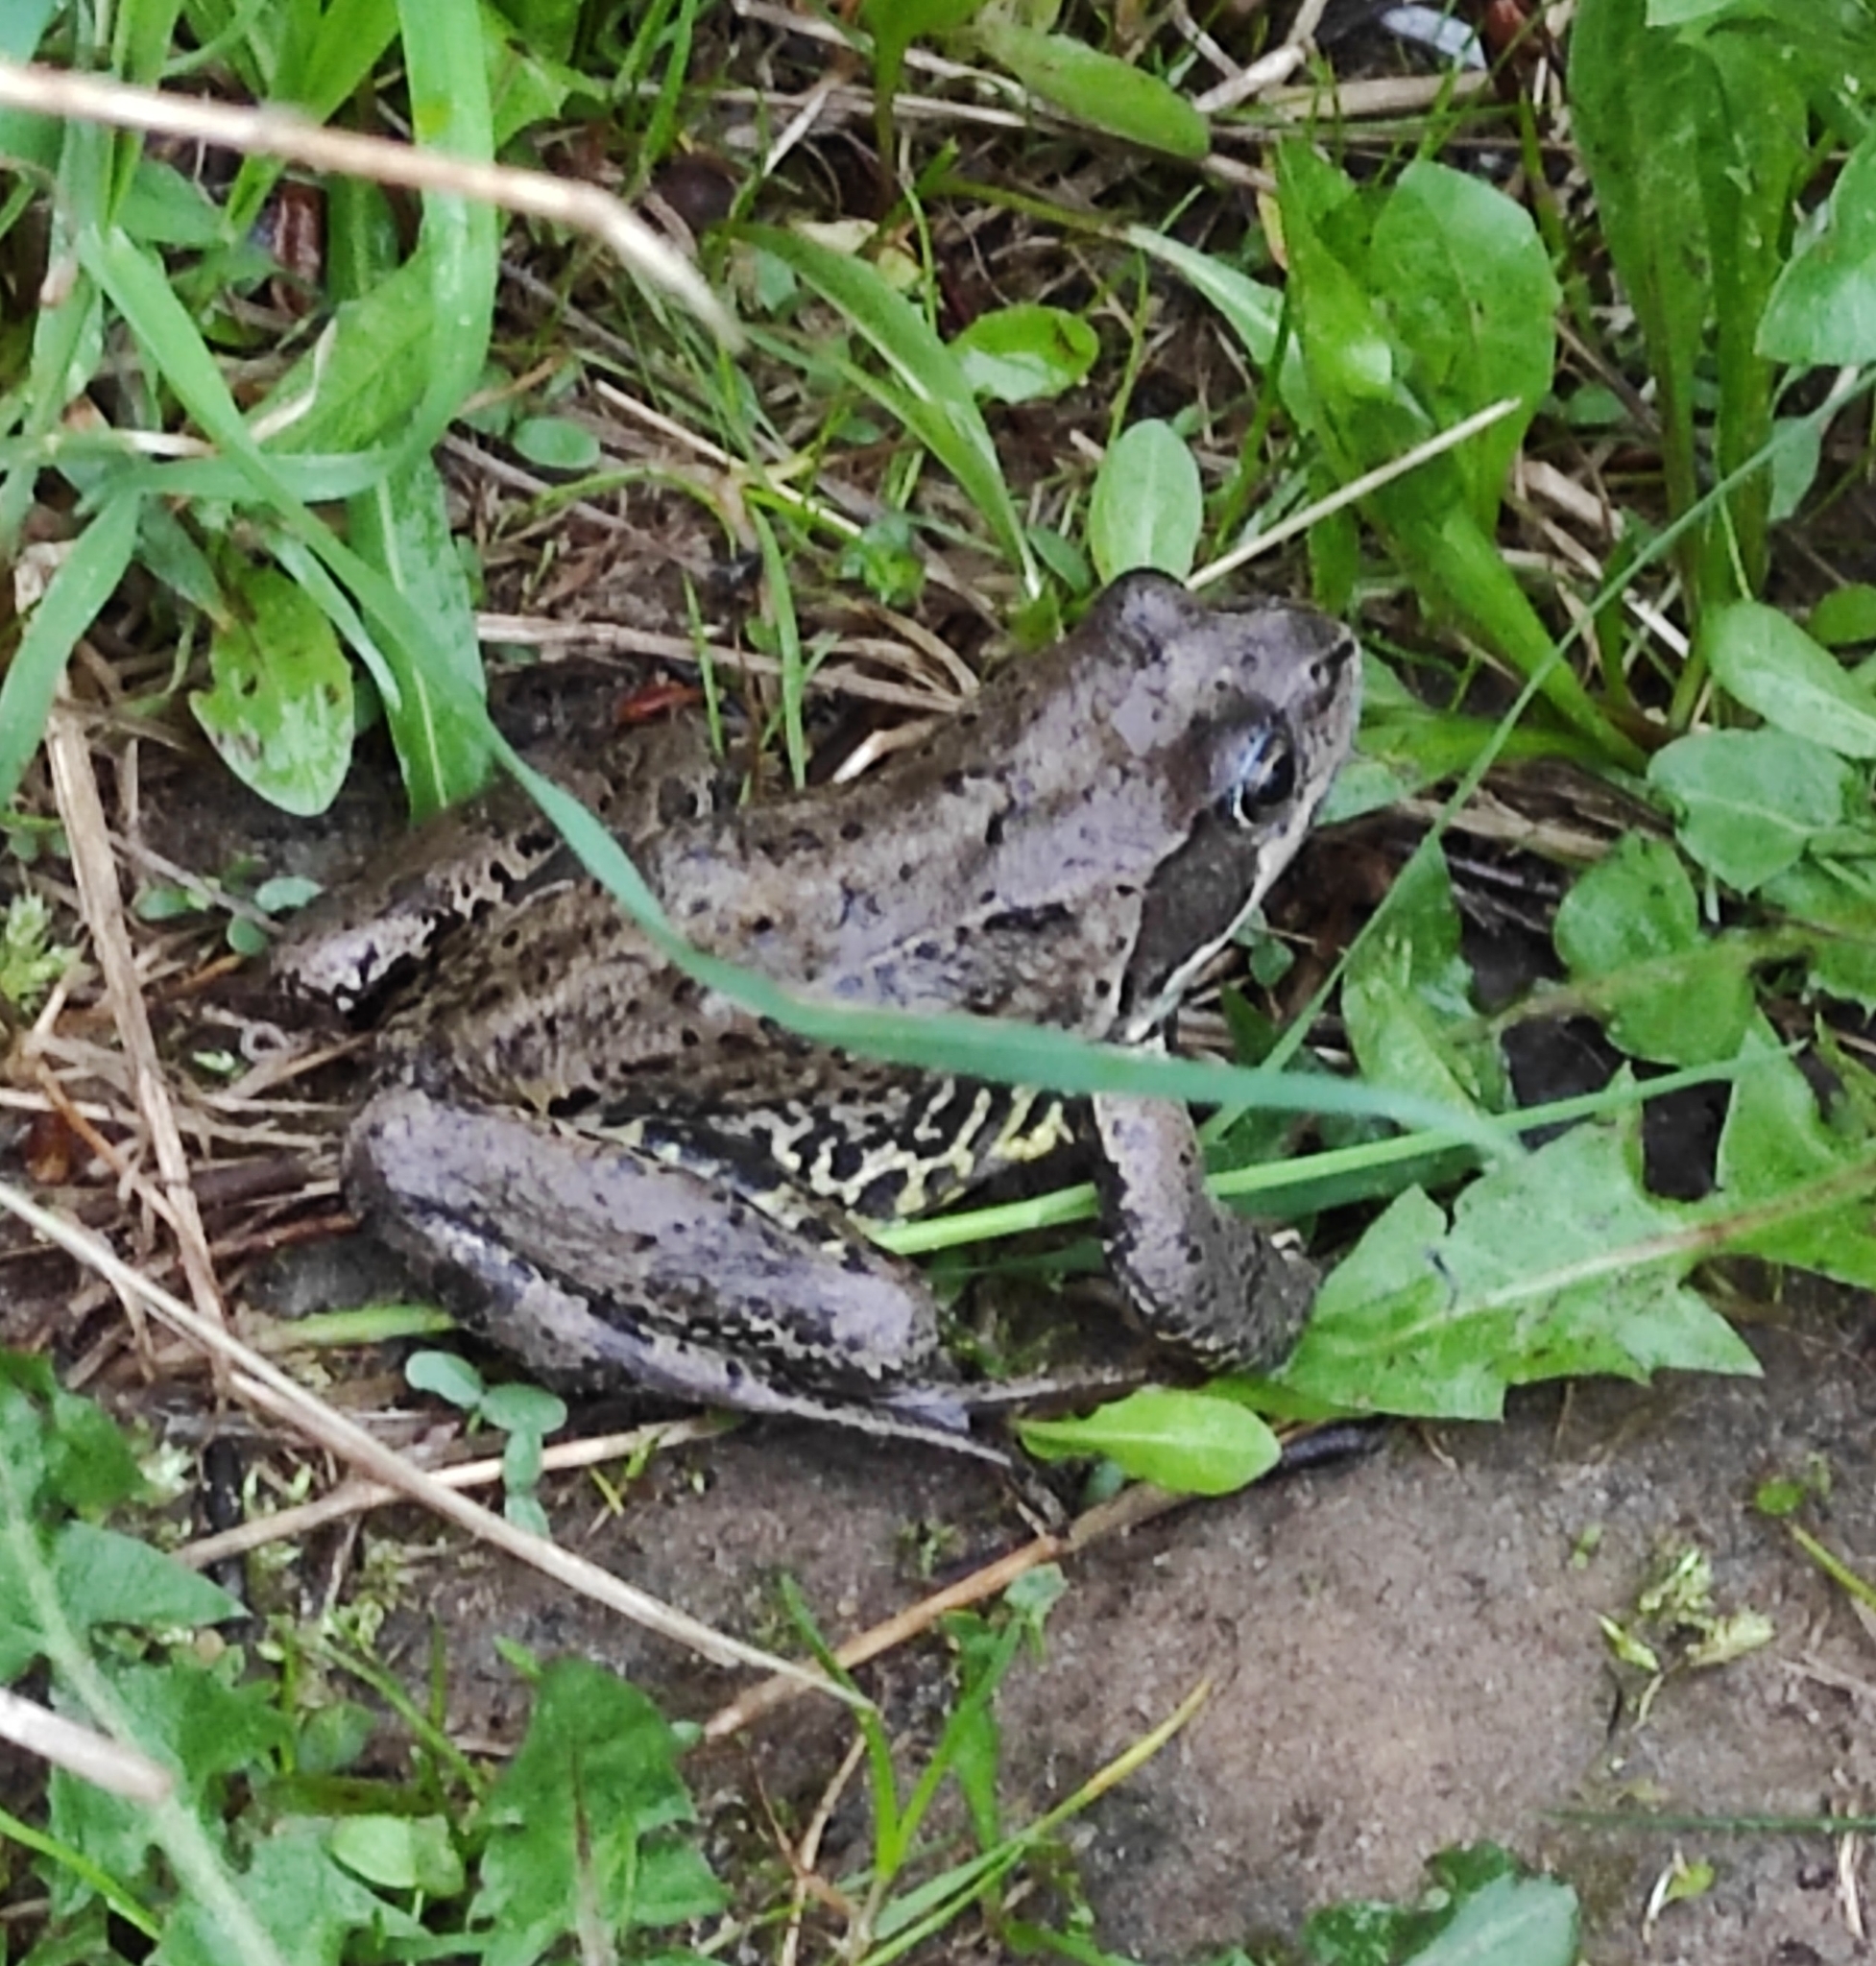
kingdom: Animalia
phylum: Chordata
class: Amphibia
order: Anura
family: Ranidae
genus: Rana
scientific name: Rana temporaria
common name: Common frog
